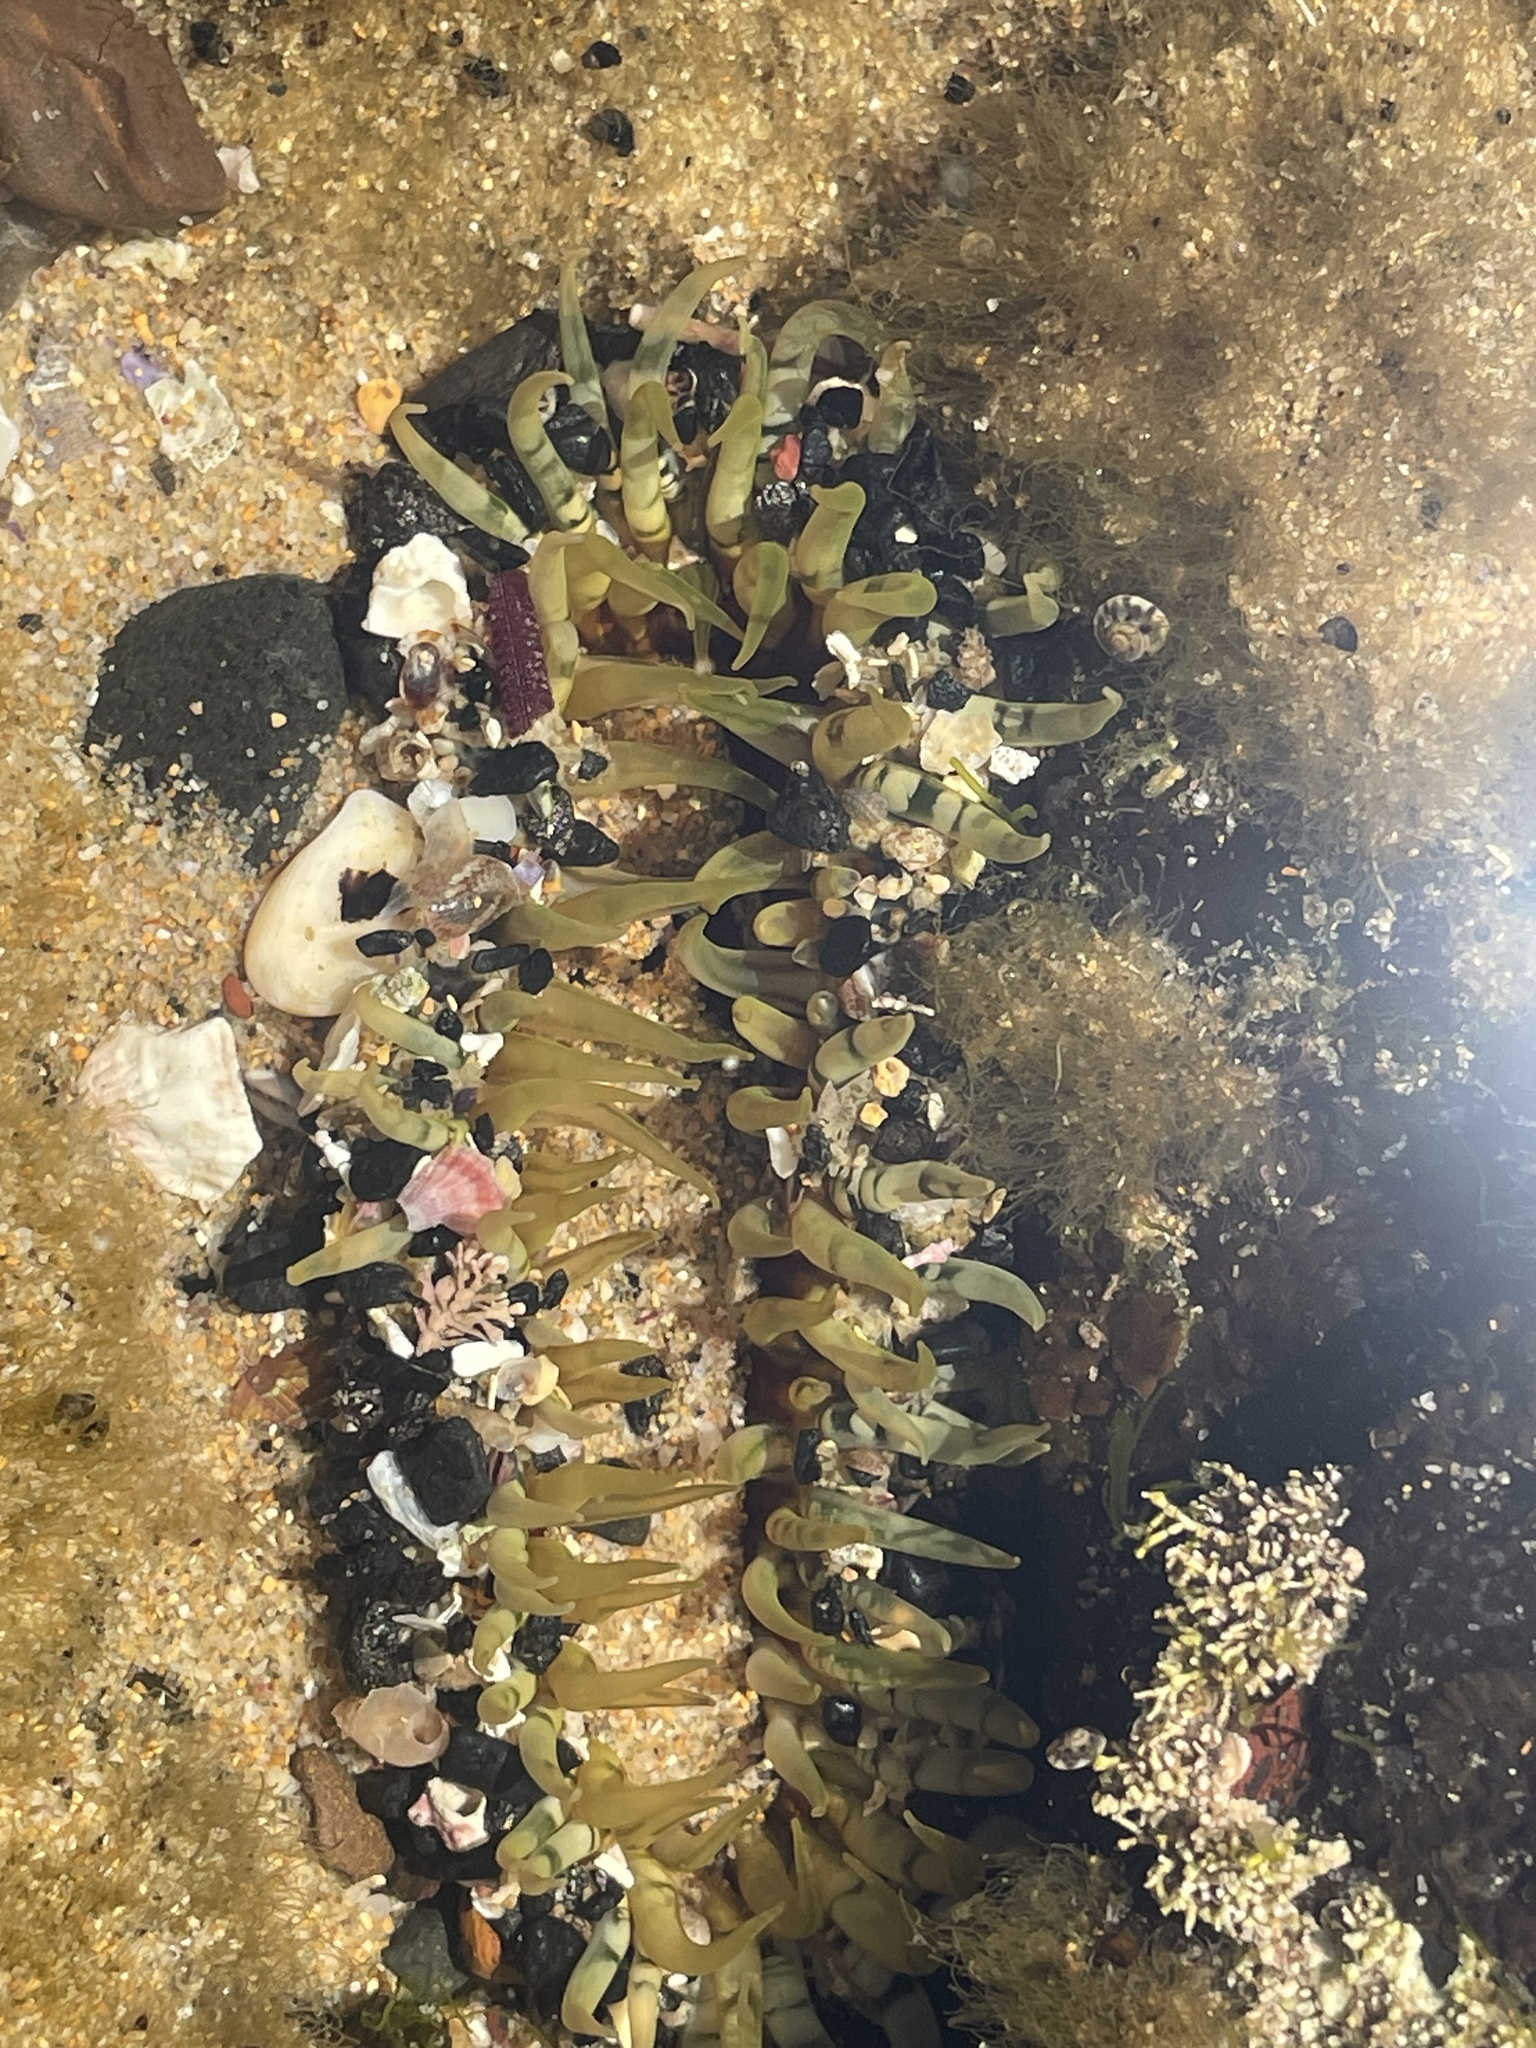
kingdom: Animalia
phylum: Cnidaria
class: Anthozoa
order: Actiniaria
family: Actiniidae
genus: Oulactis
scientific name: Oulactis muscosa
